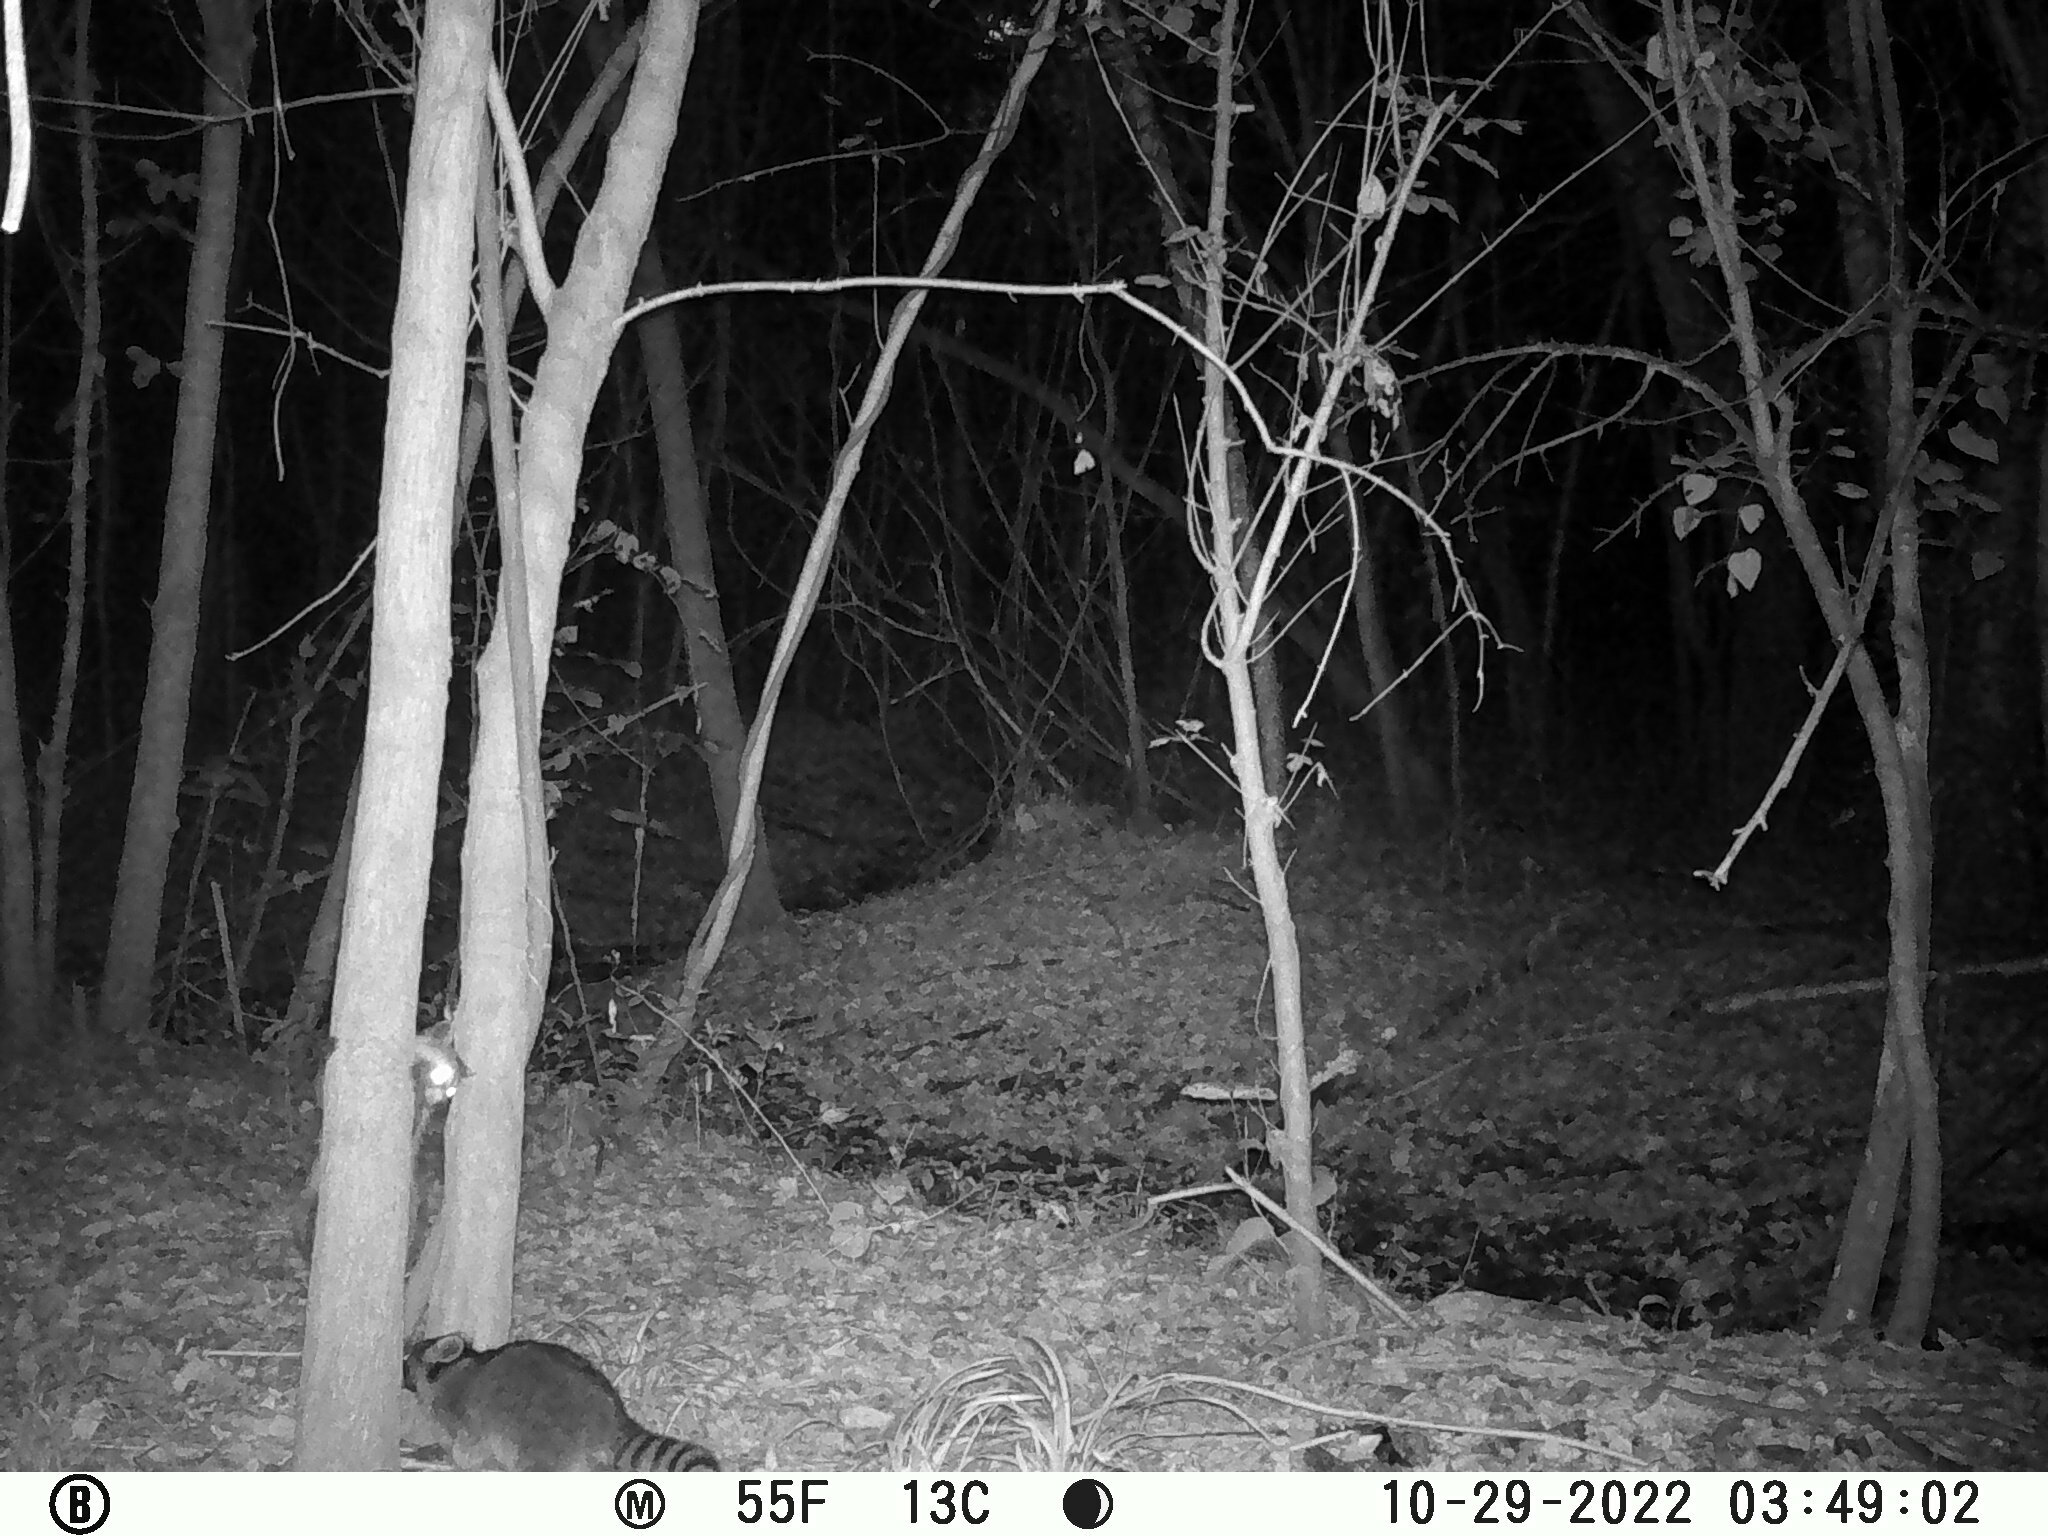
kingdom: Animalia
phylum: Chordata
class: Mammalia
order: Carnivora
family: Procyonidae
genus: Procyon
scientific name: Procyon lotor
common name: Raccoon
